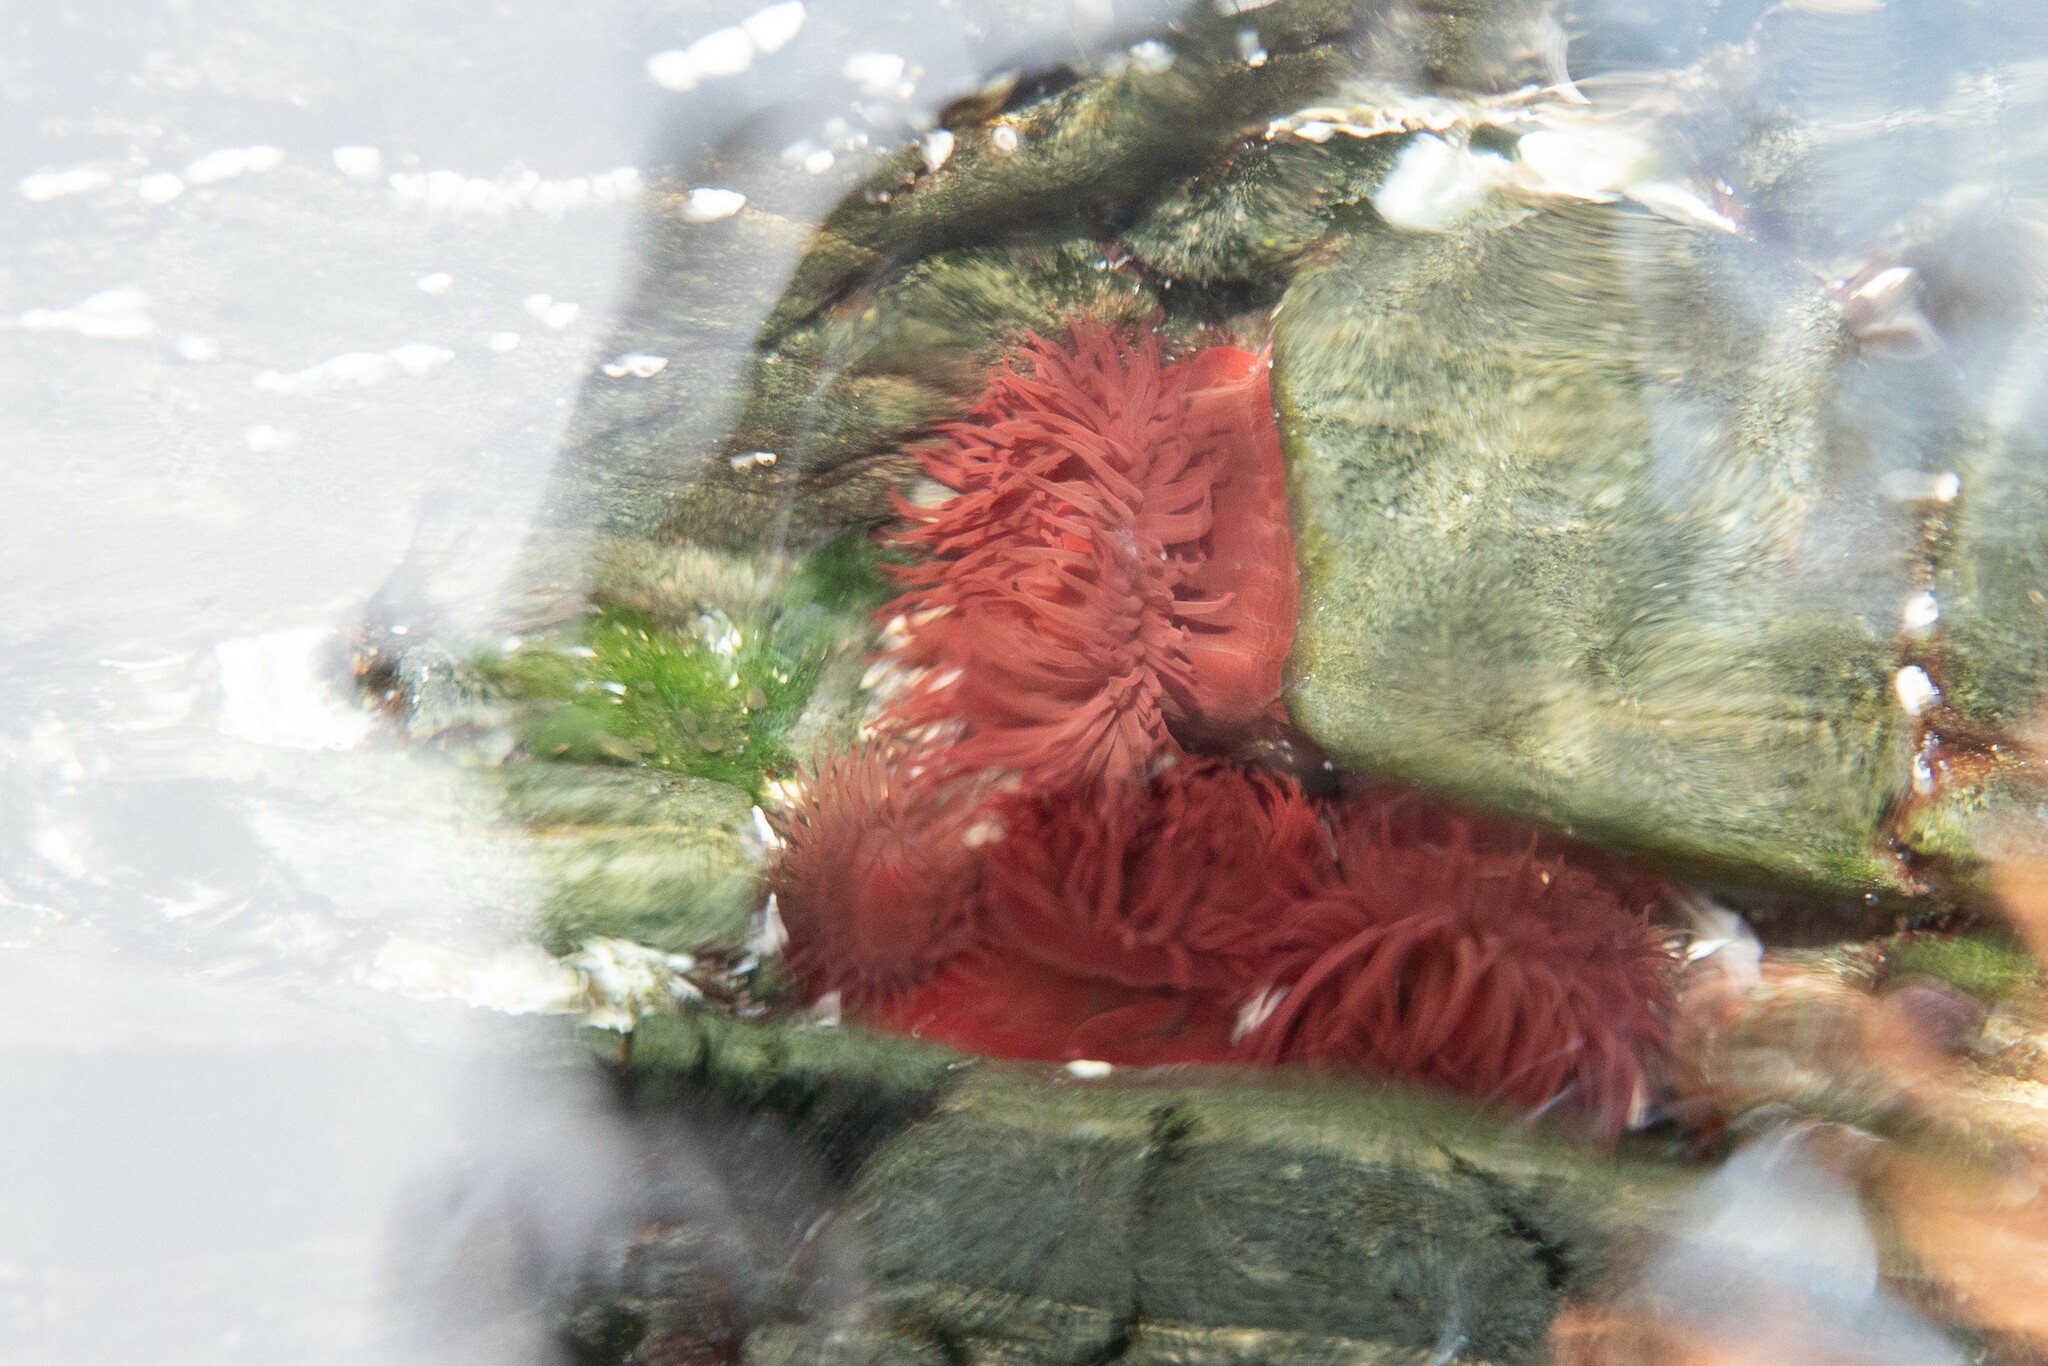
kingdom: Animalia
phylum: Cnidaria
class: Anthozoa
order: Actiniaria
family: Actiniidae
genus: Actinia
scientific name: Actinia equina
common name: Beadlet anemone
